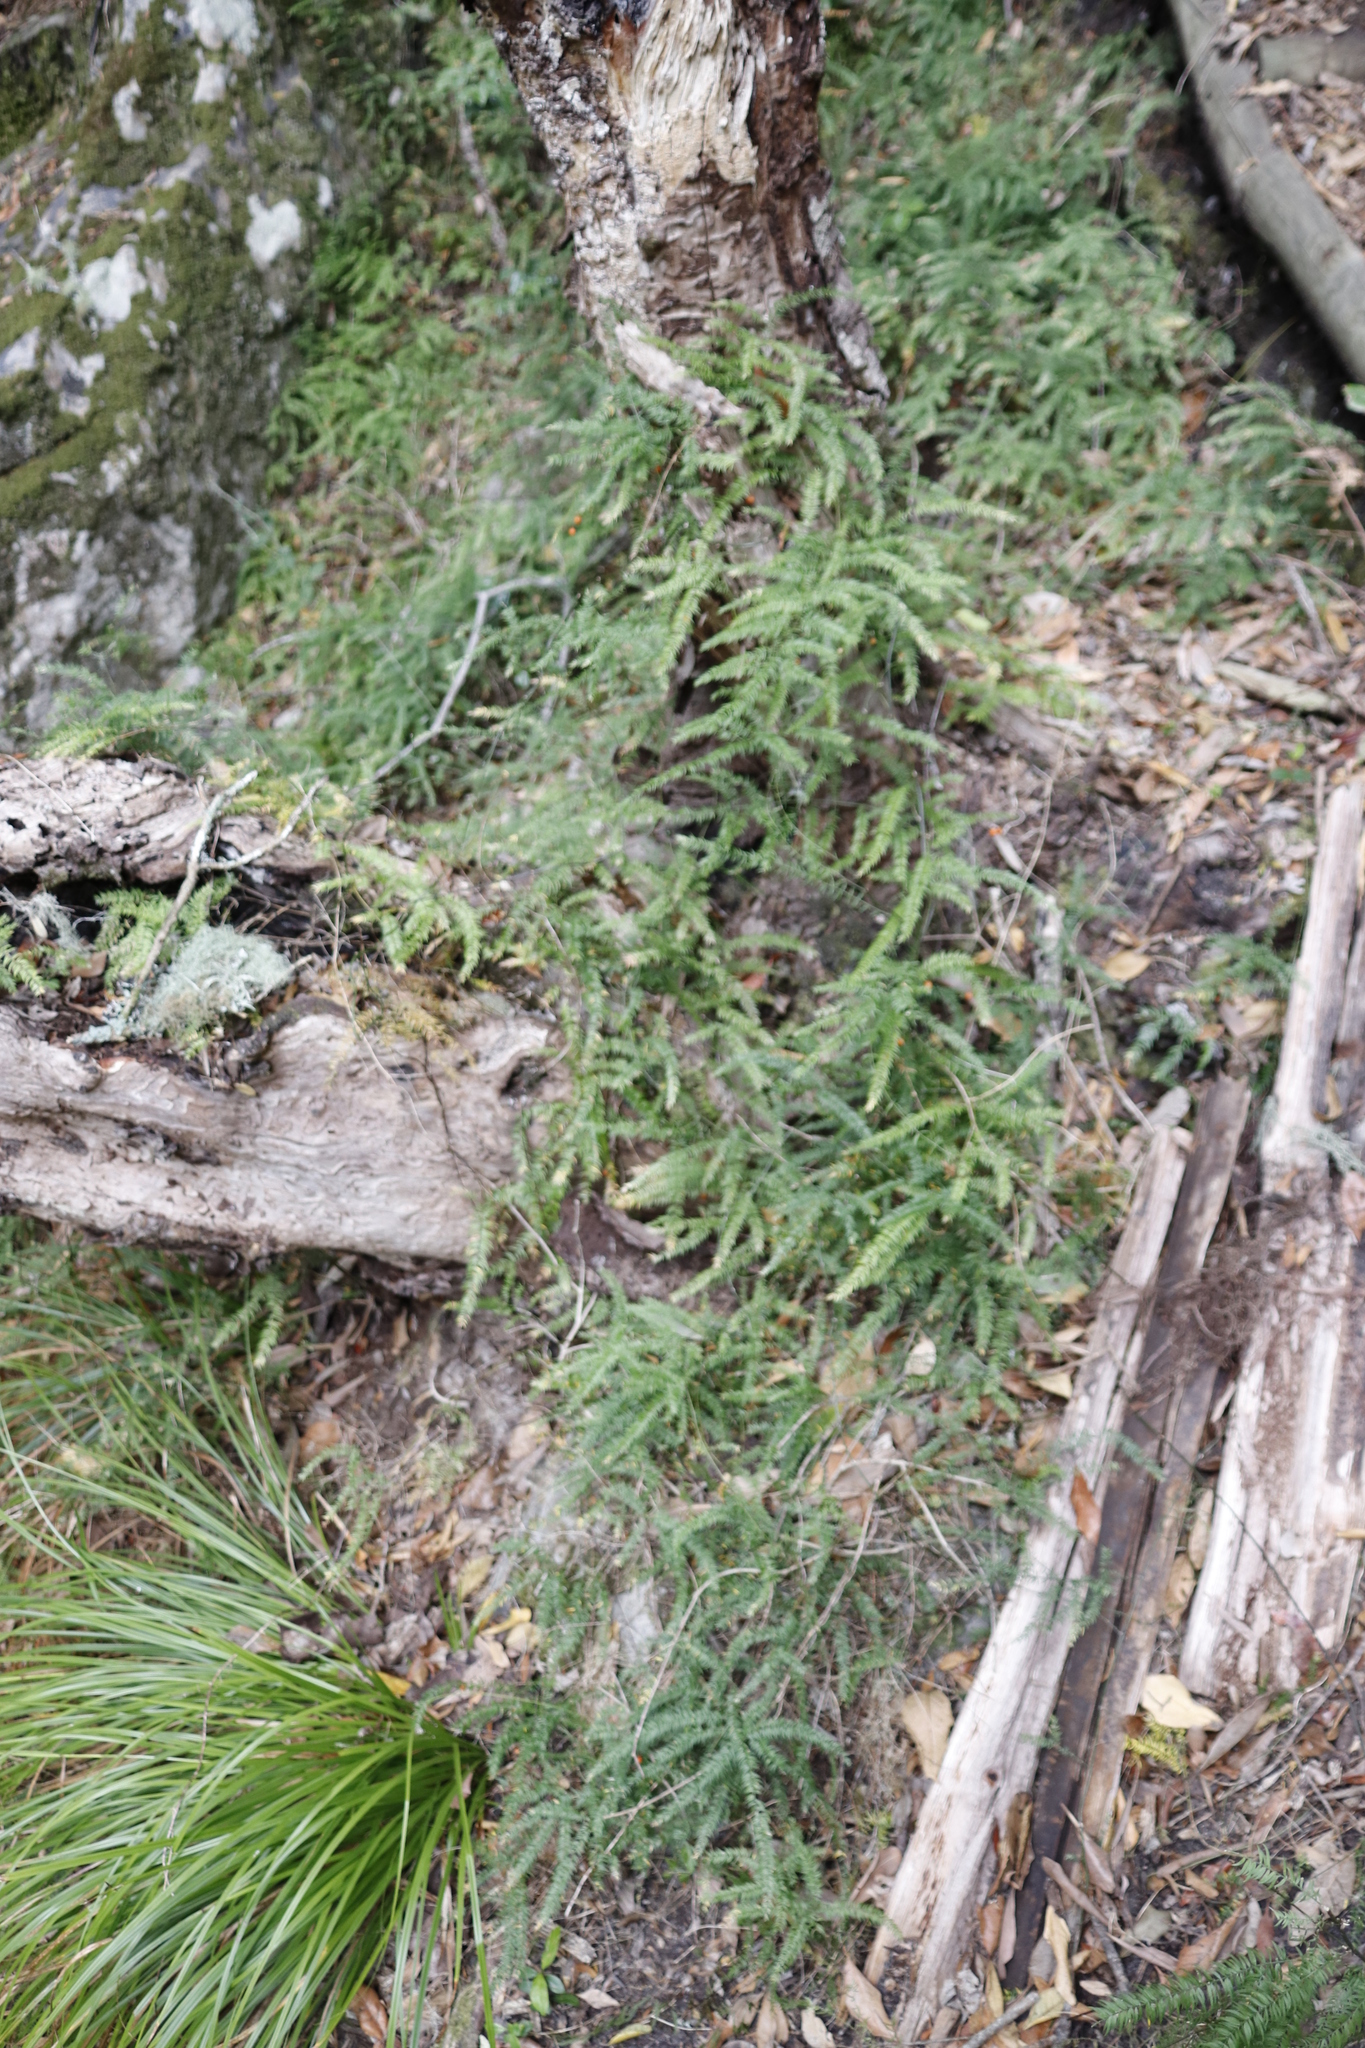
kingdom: Plantae
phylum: Tracheophyta
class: Liliopsida
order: Asparagales
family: Asparagaceae
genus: Asparagus
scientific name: Asparagus scandens
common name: Asparagus-fern
